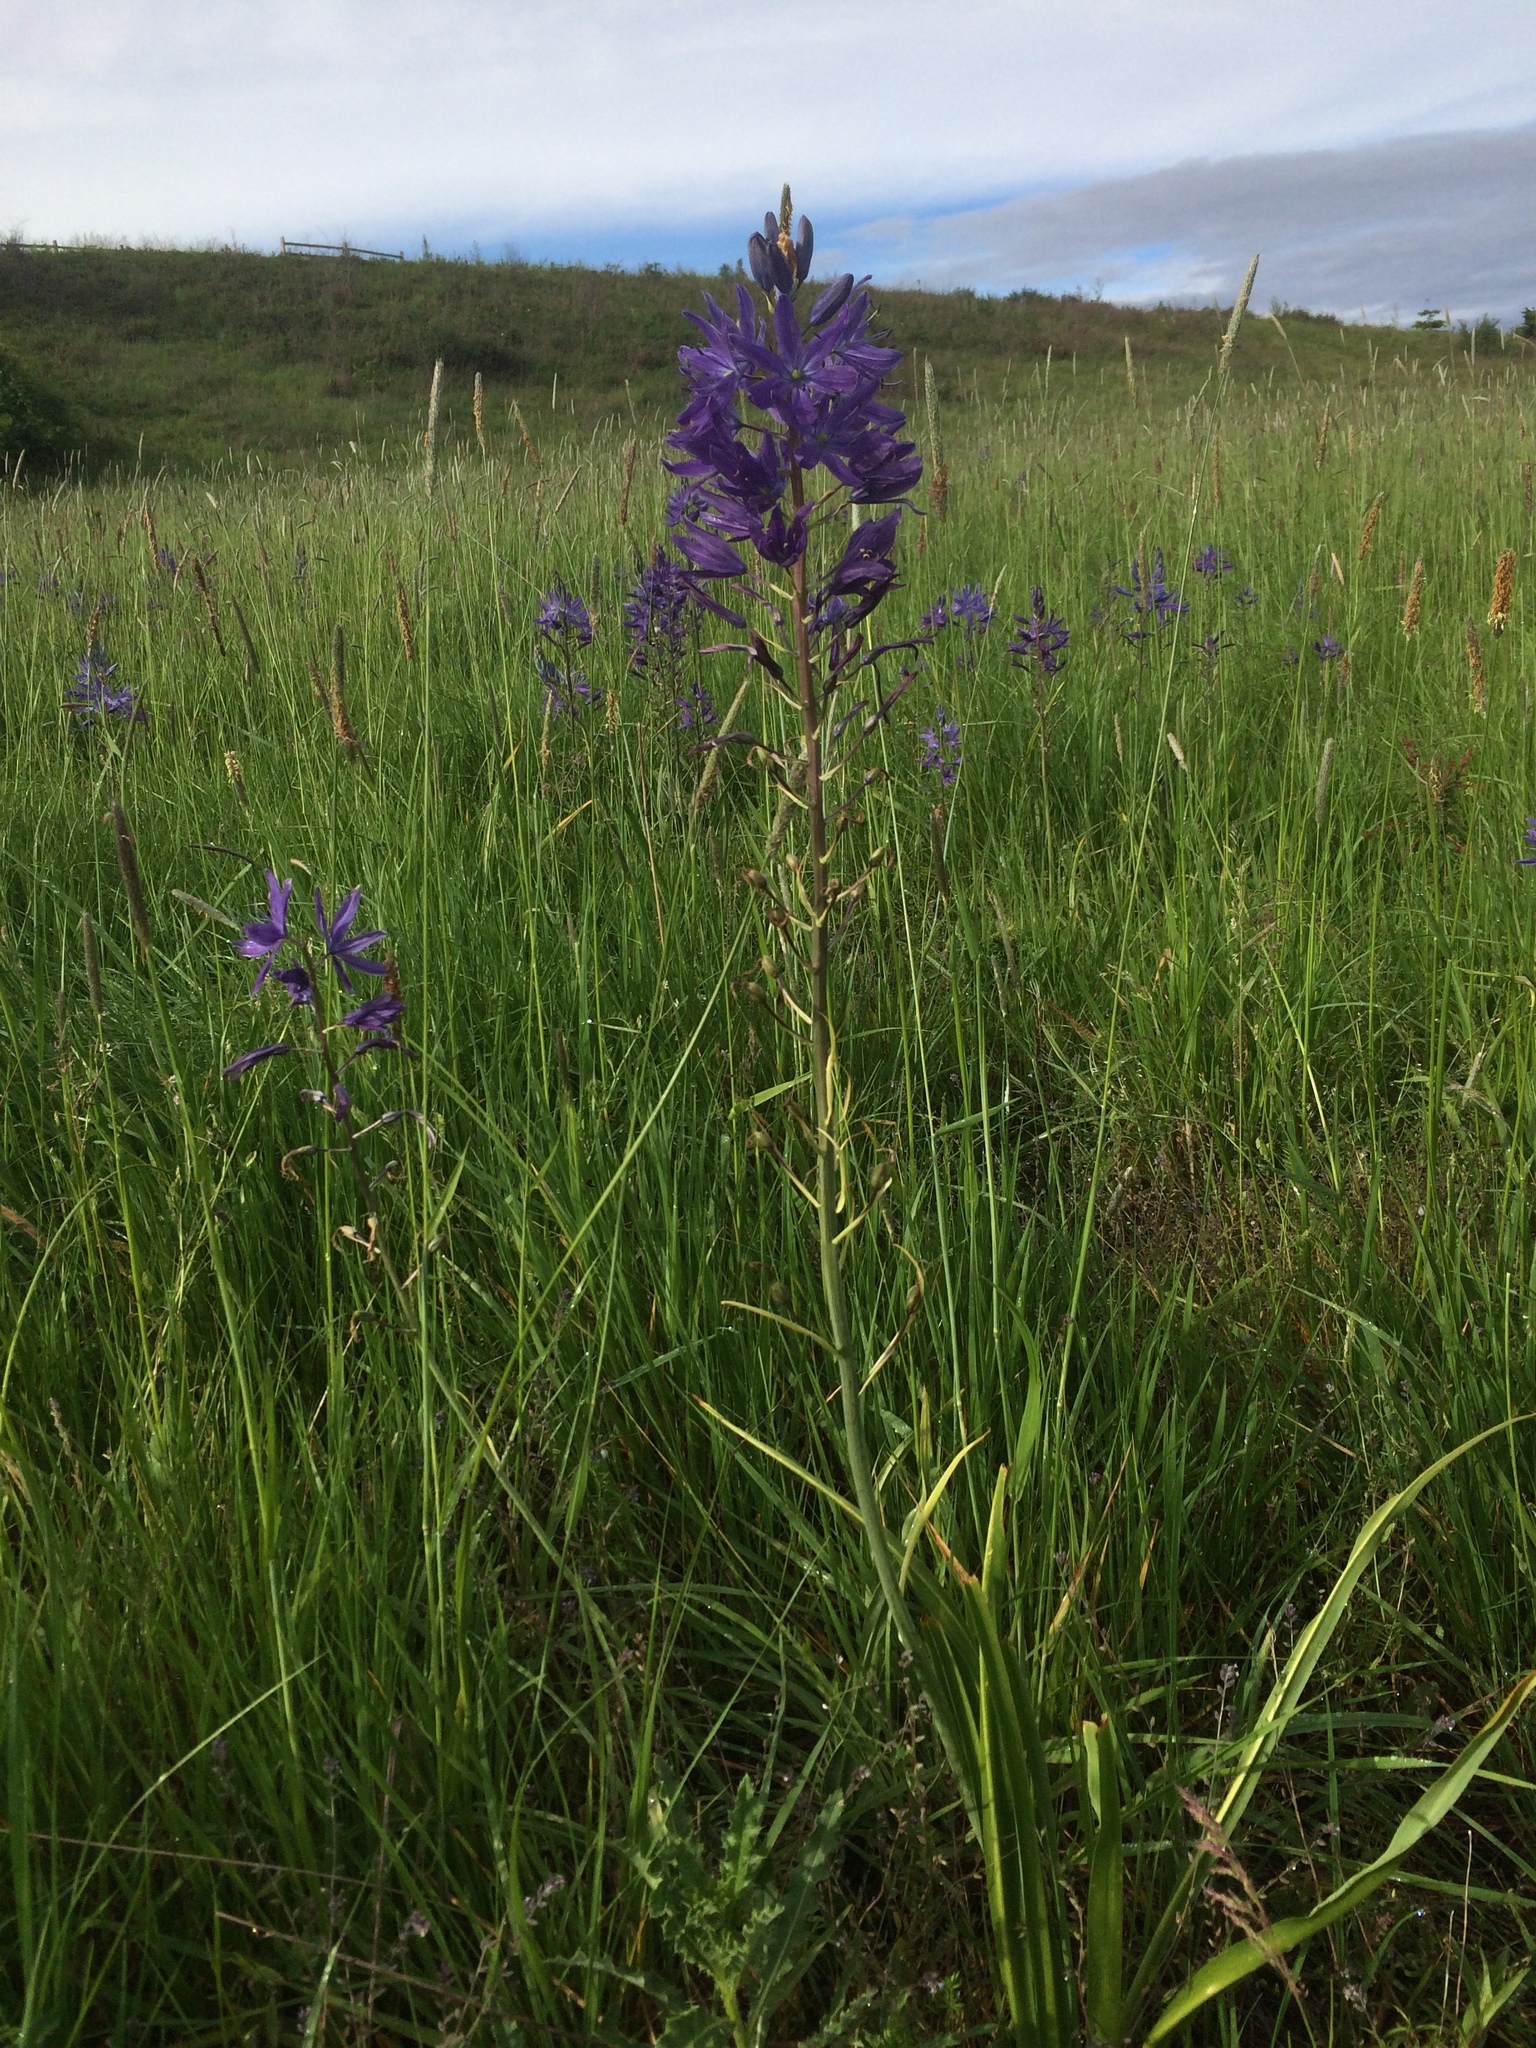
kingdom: Plantae
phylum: Tracheophyta
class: Liliopsida
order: Asparagales
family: Asparagaceae
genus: Camassia
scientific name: Camassia leichtlinii
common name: Leichtlin's camas
